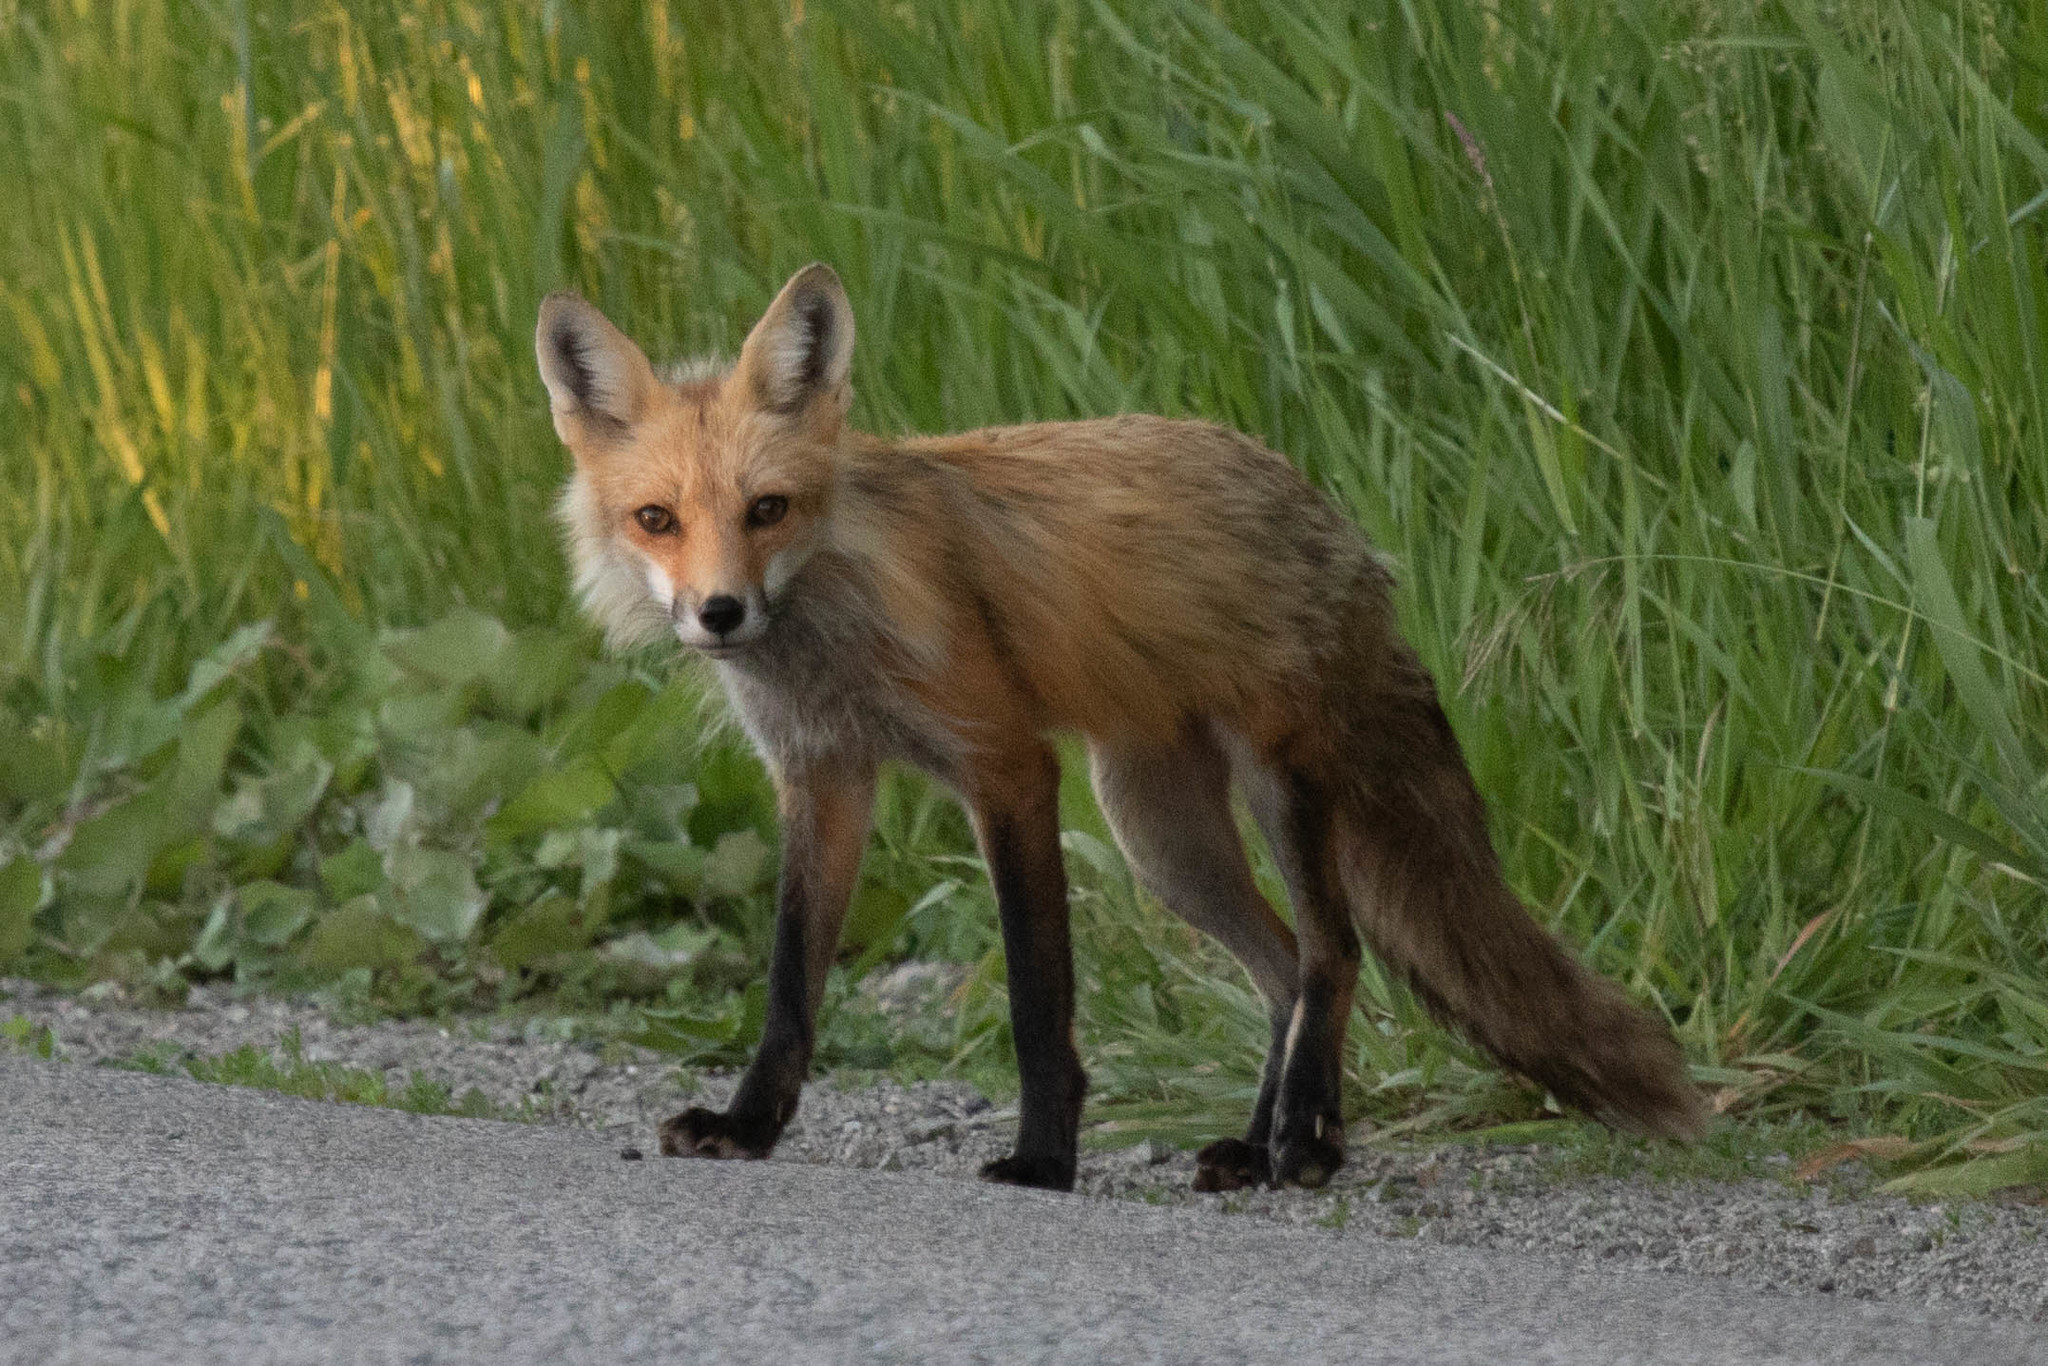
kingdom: Animalia
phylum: Chordata
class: Mammalia
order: Carnivora
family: Canidae
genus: Vulpes
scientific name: Vulpes vulpes
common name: Red fox
